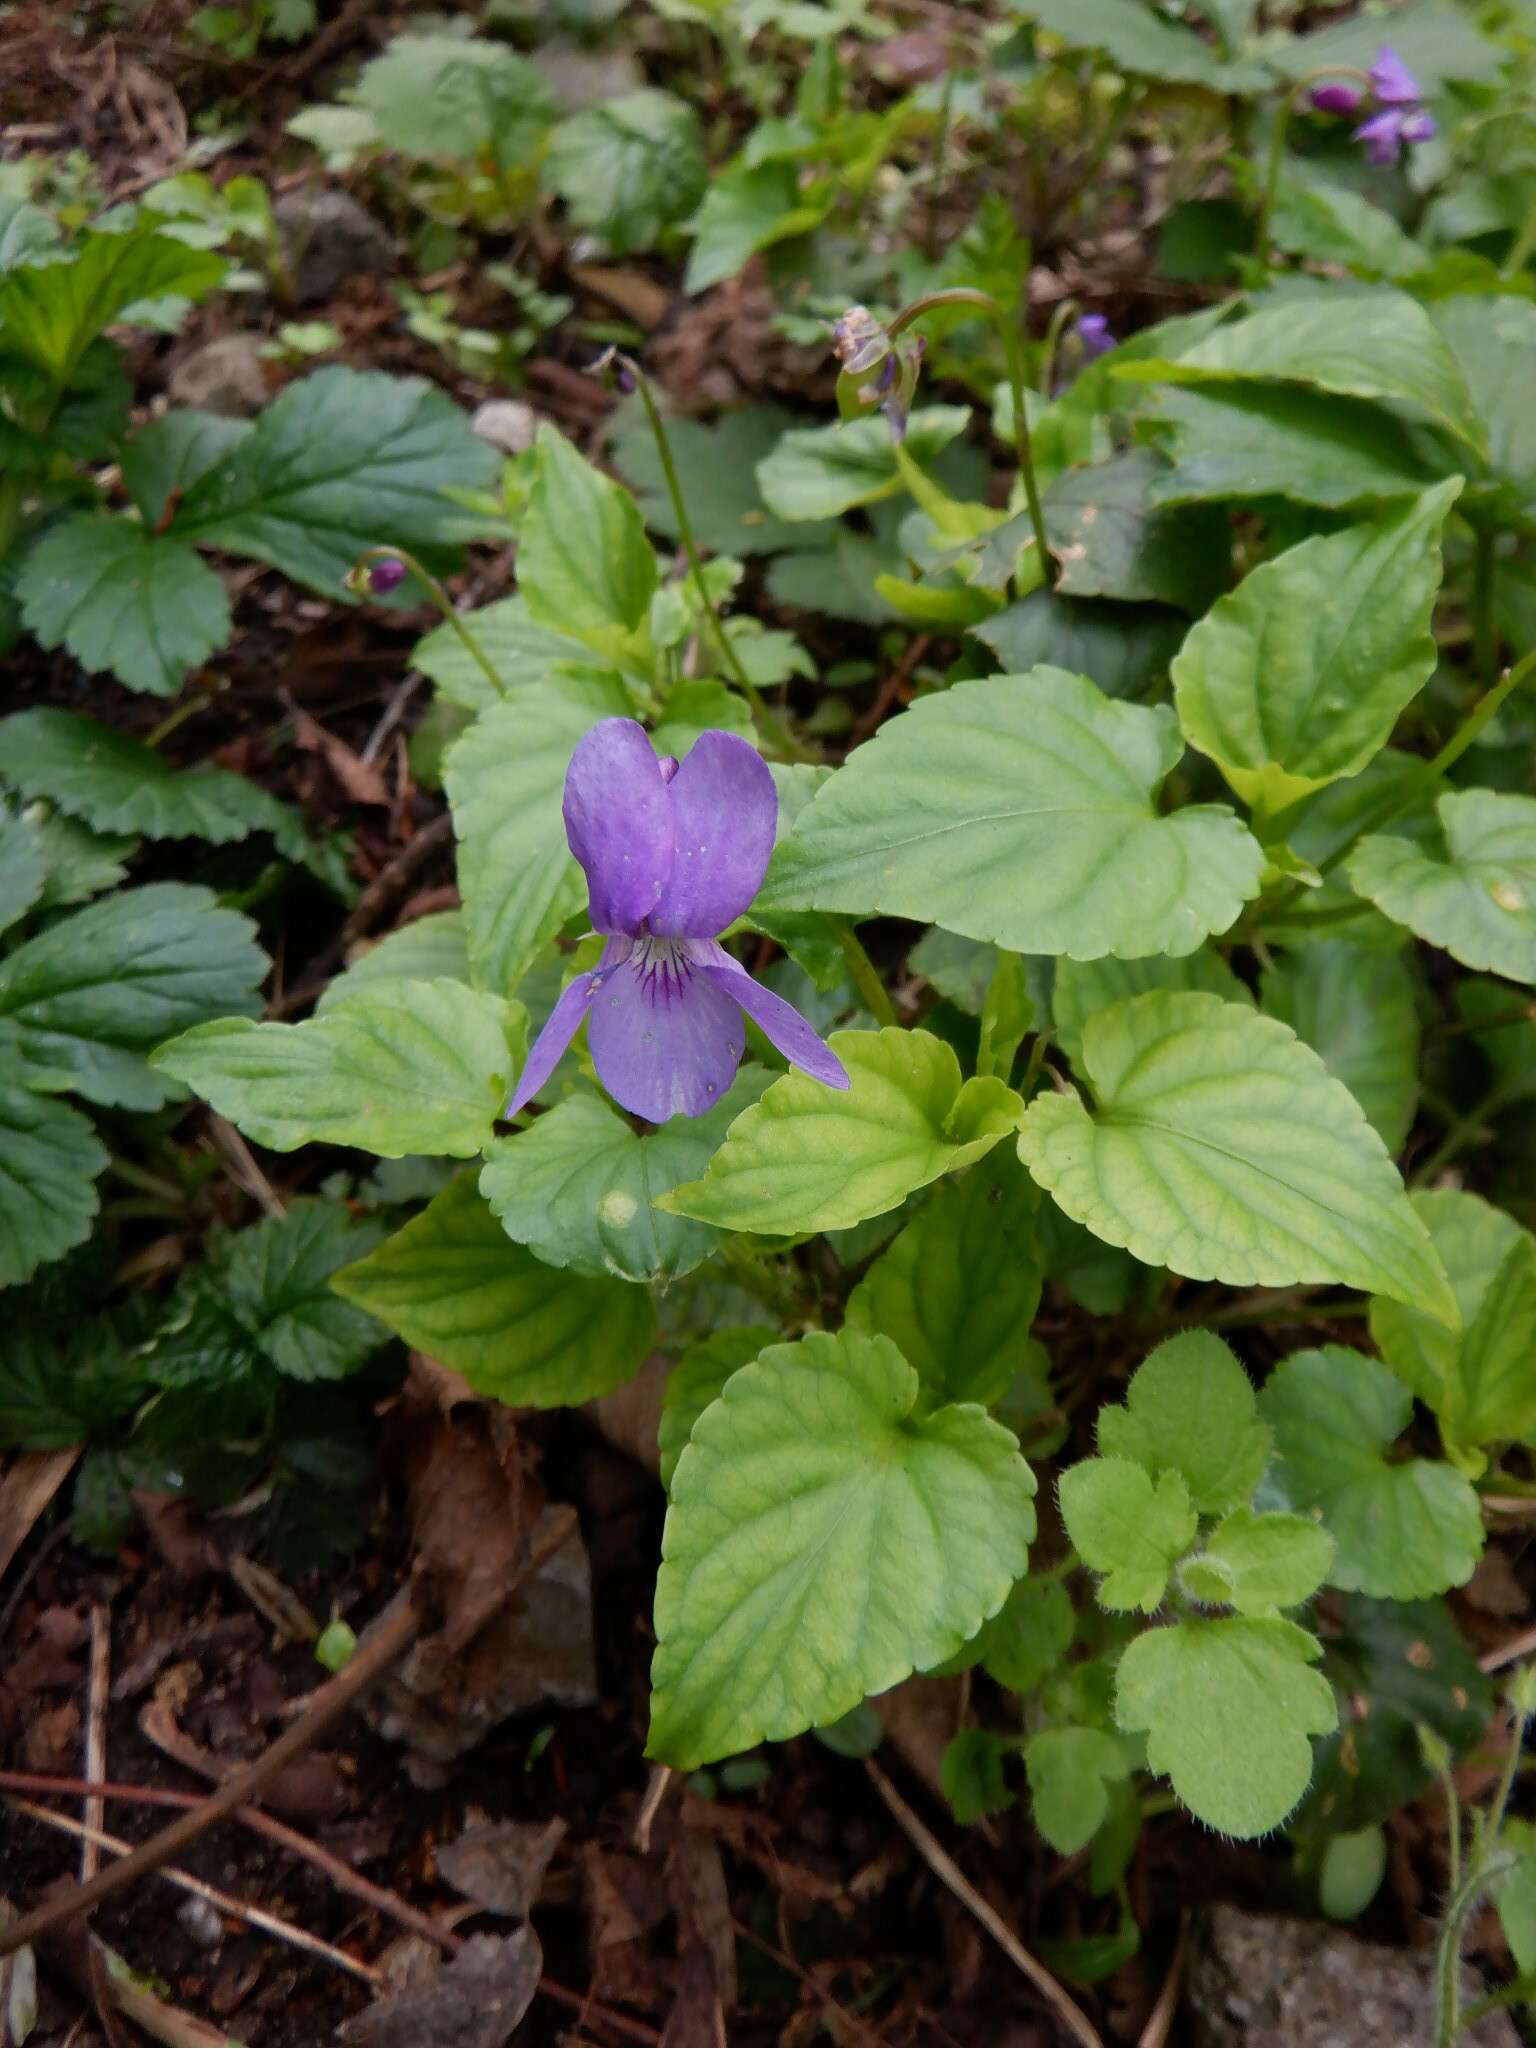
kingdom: Plantae
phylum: Tracheophyta
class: Magnoliopsida
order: Malpighiales
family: Violaceae
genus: Viola
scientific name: Viola reichenbachiana
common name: Early dog-violet
